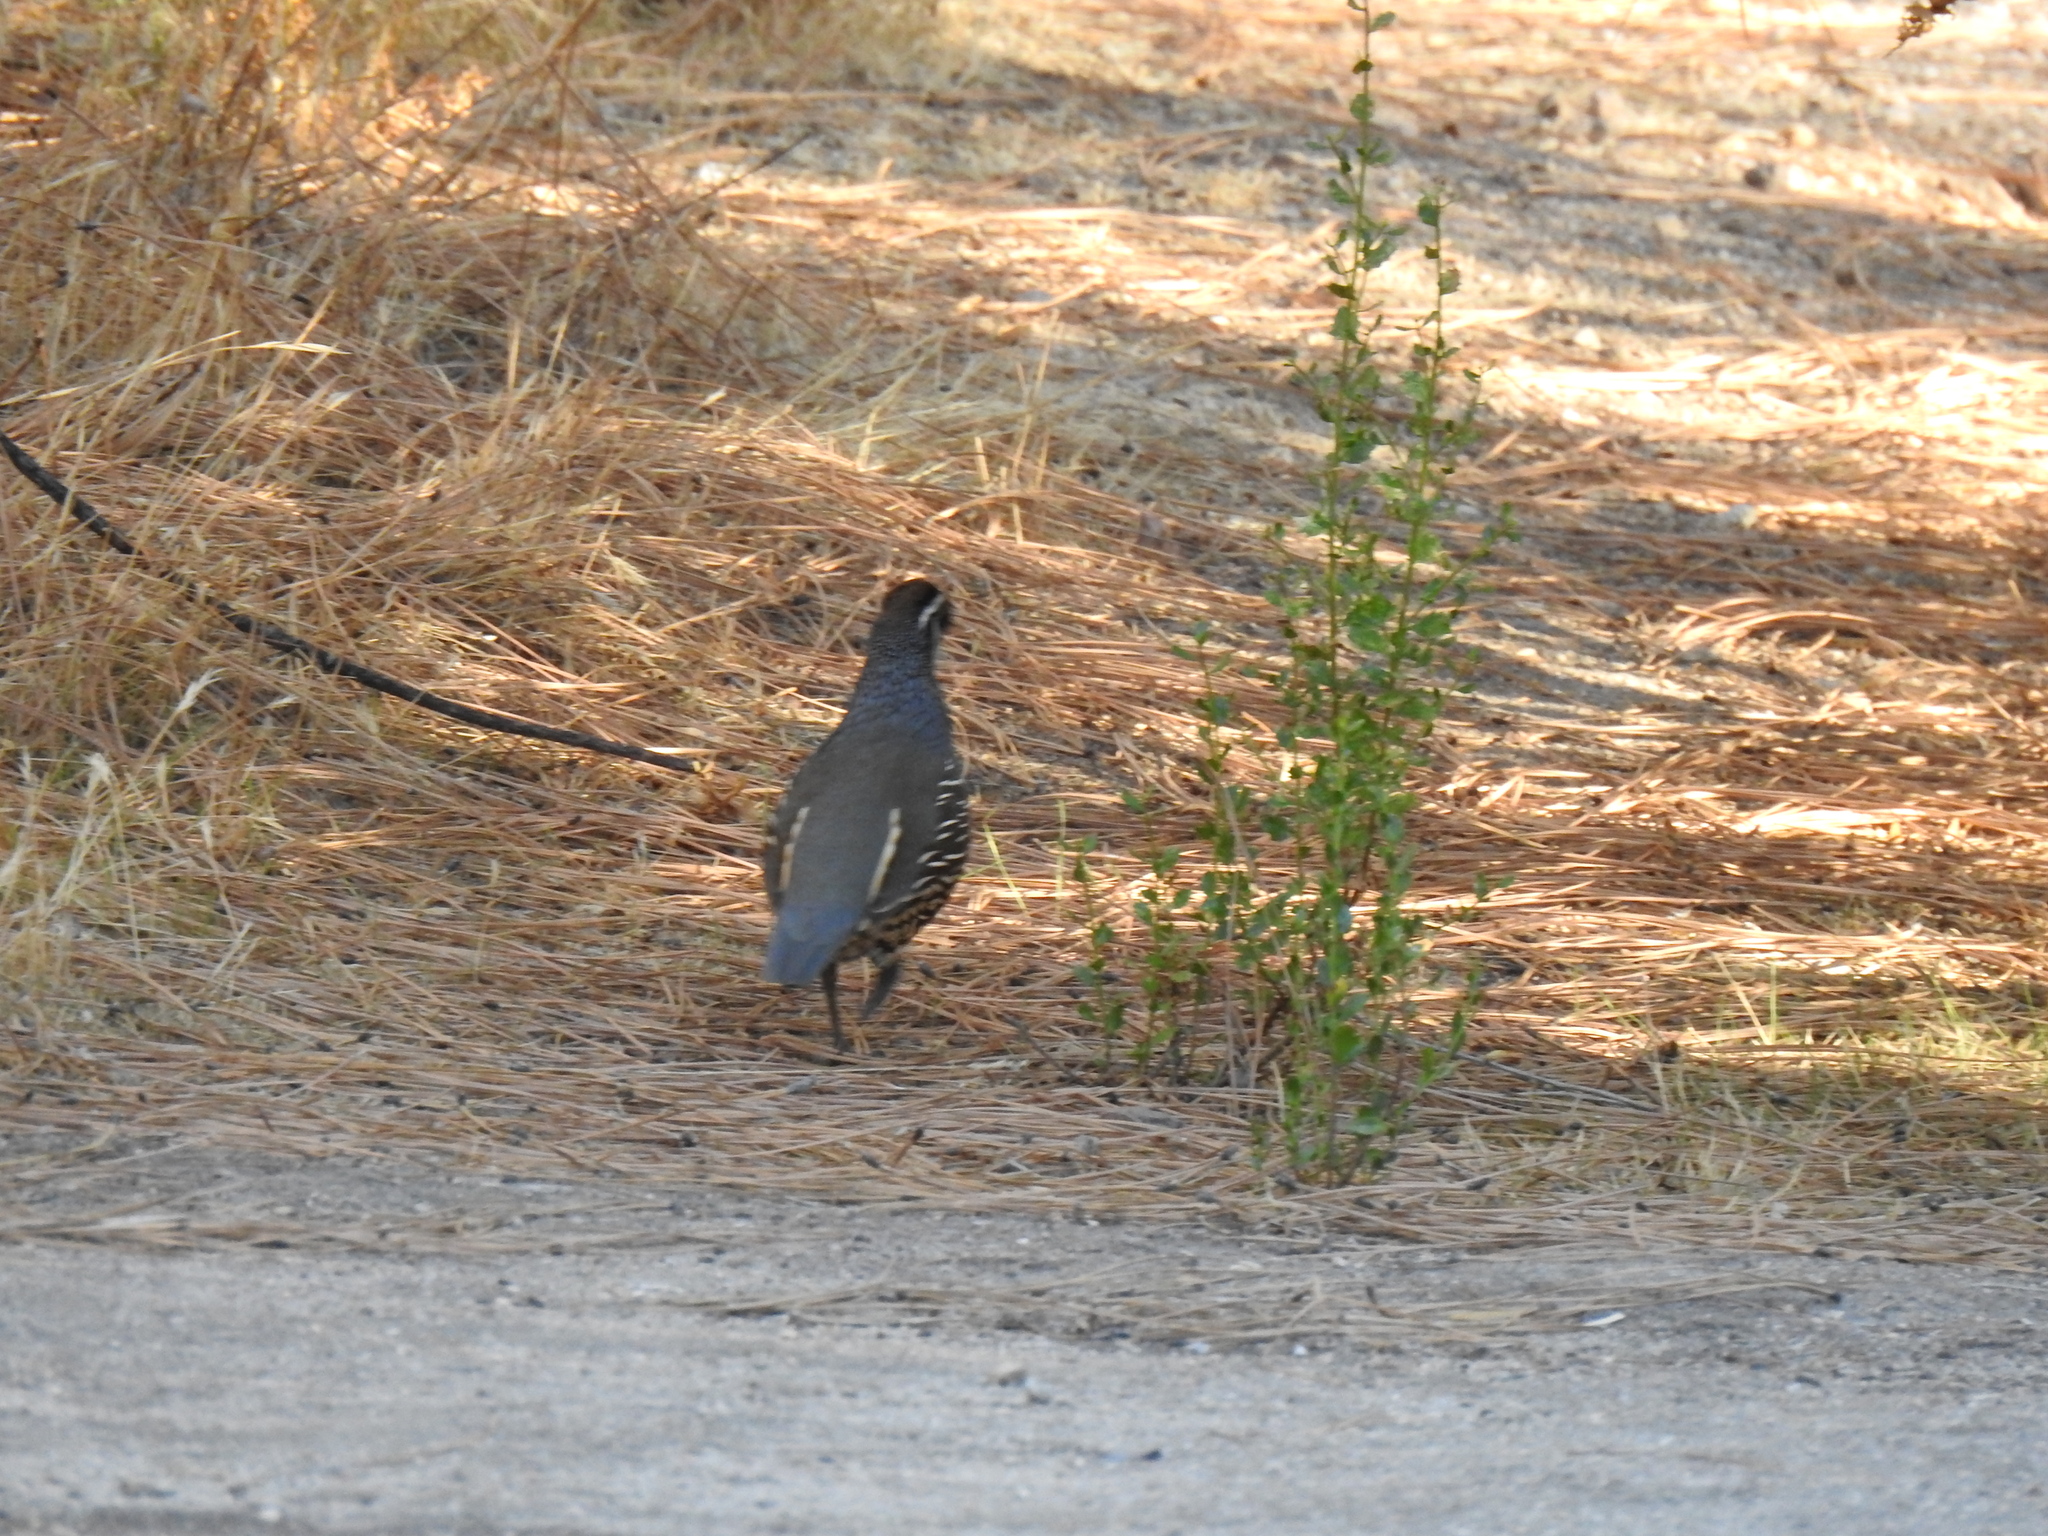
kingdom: Animalia
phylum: Chordata
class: Aves
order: Galliformes
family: Odontophoridae
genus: Callipepla
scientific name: Callipepla californica
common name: California quail
